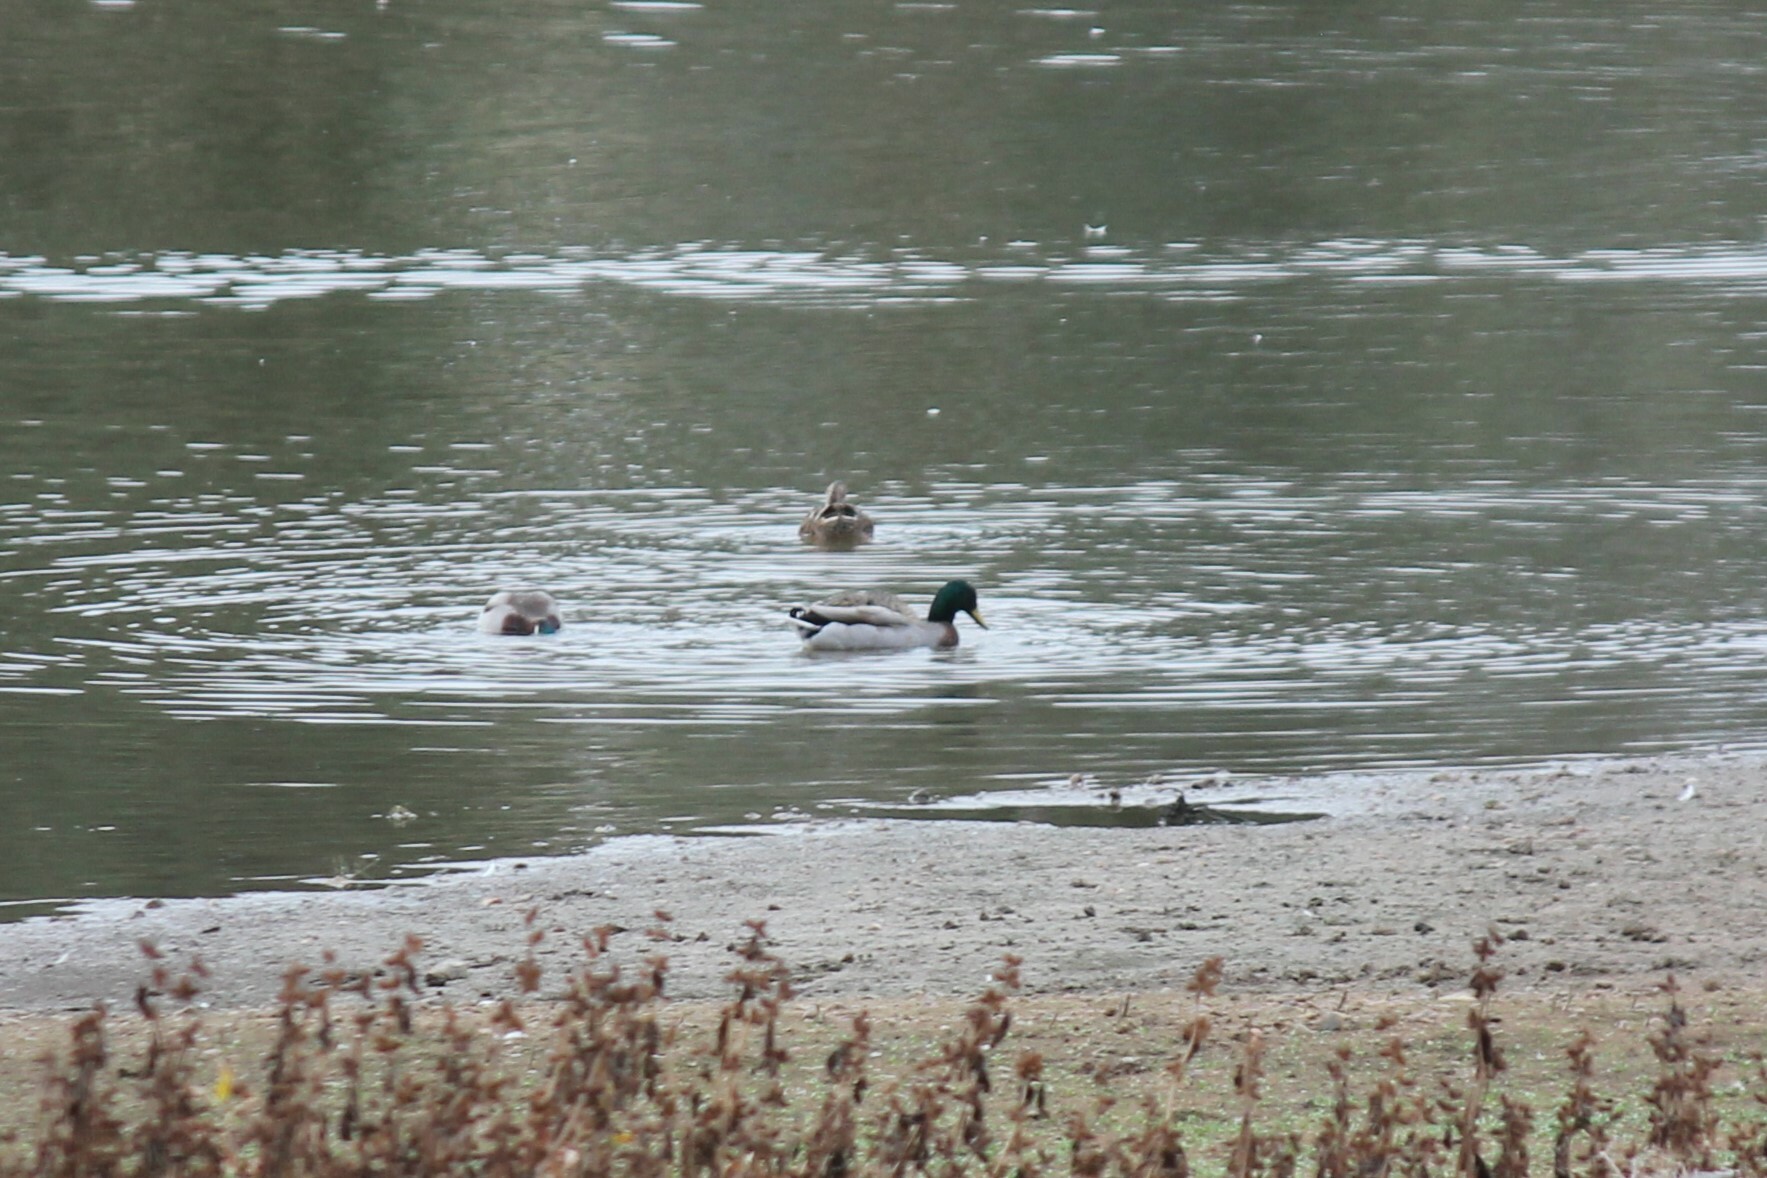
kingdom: Animalia
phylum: Chordata
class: Aves
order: Anseriformes
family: Anatidae
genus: Anas
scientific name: Anas platyrhynchos
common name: Mallard
